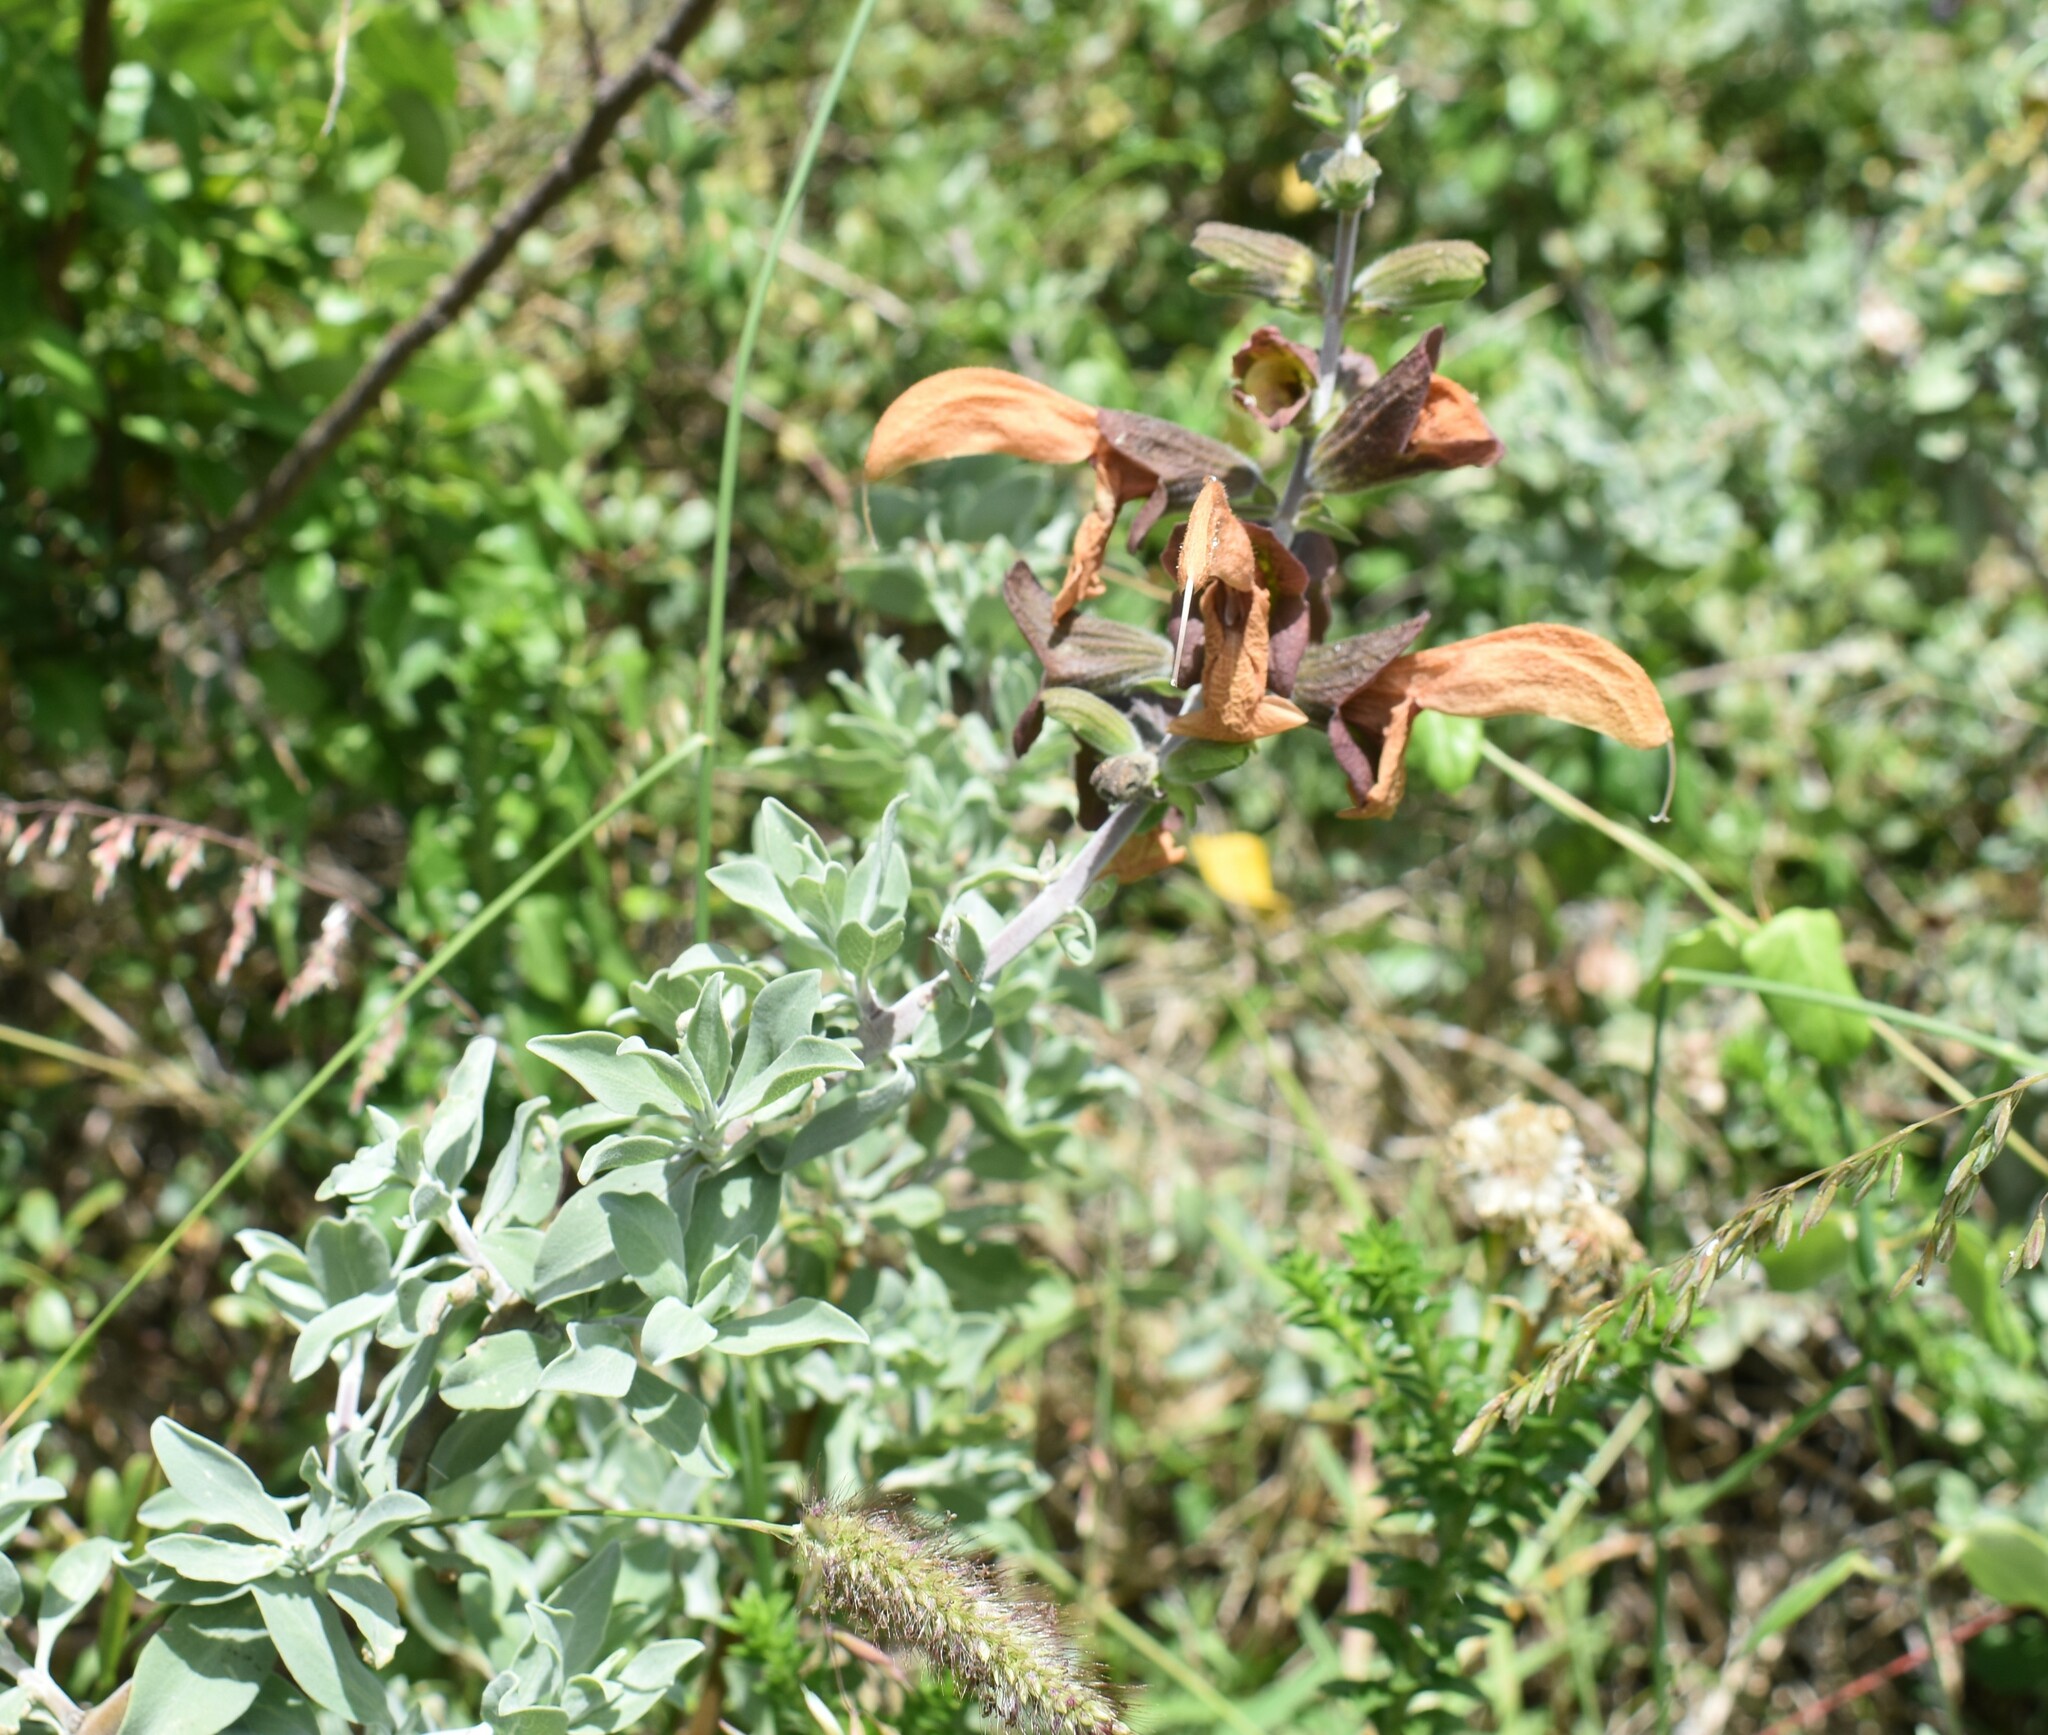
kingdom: Plantae
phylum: Tracheophyta
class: Magnoliopsida
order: Lamiales
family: Lamiaceae
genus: Salvia
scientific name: Salvia aurea
